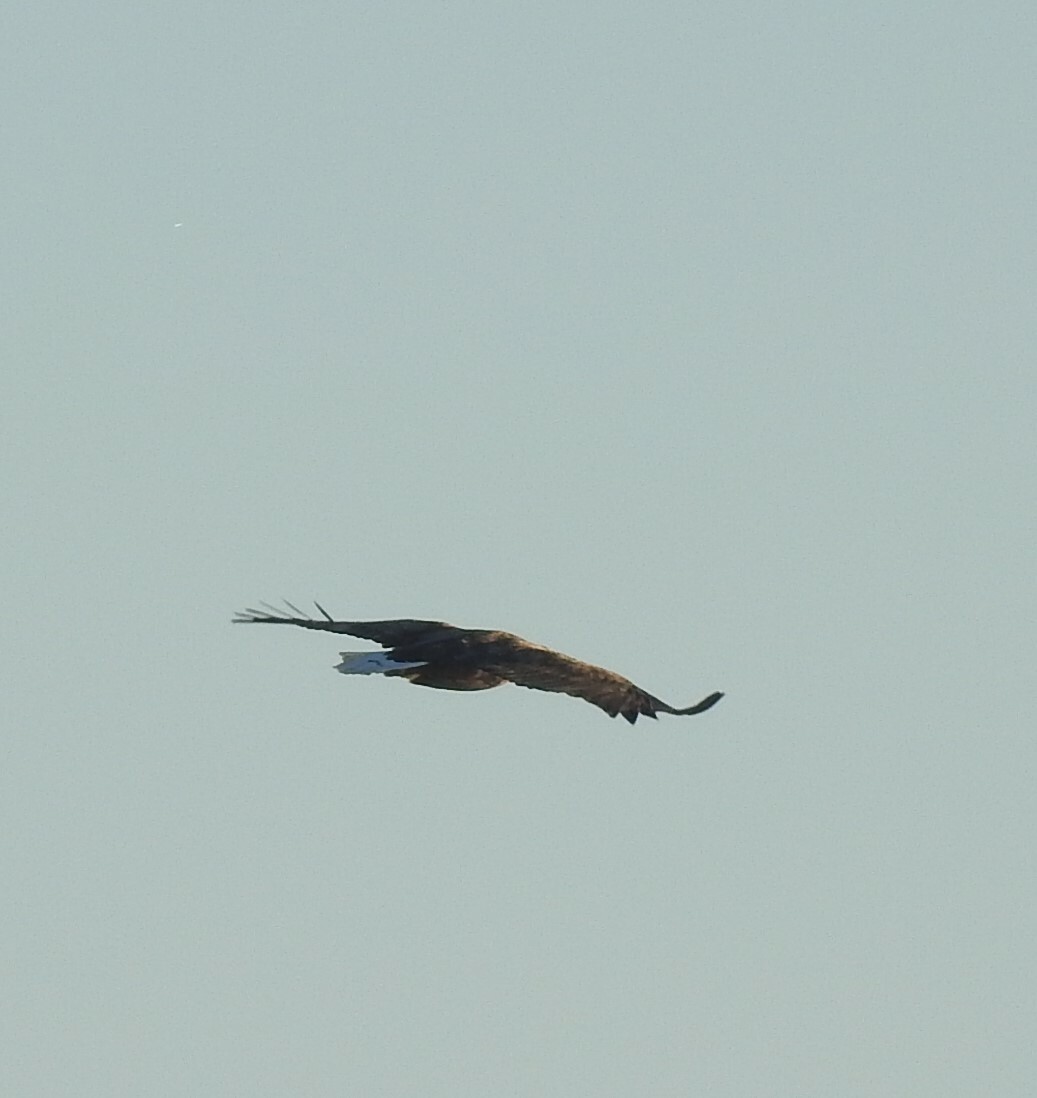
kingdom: Animalia
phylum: Chordata
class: Aves
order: Accipitriformes
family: Accipitridae
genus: Haliaeetus
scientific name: Haliaeetus albicilla
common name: White-tailed eagle
